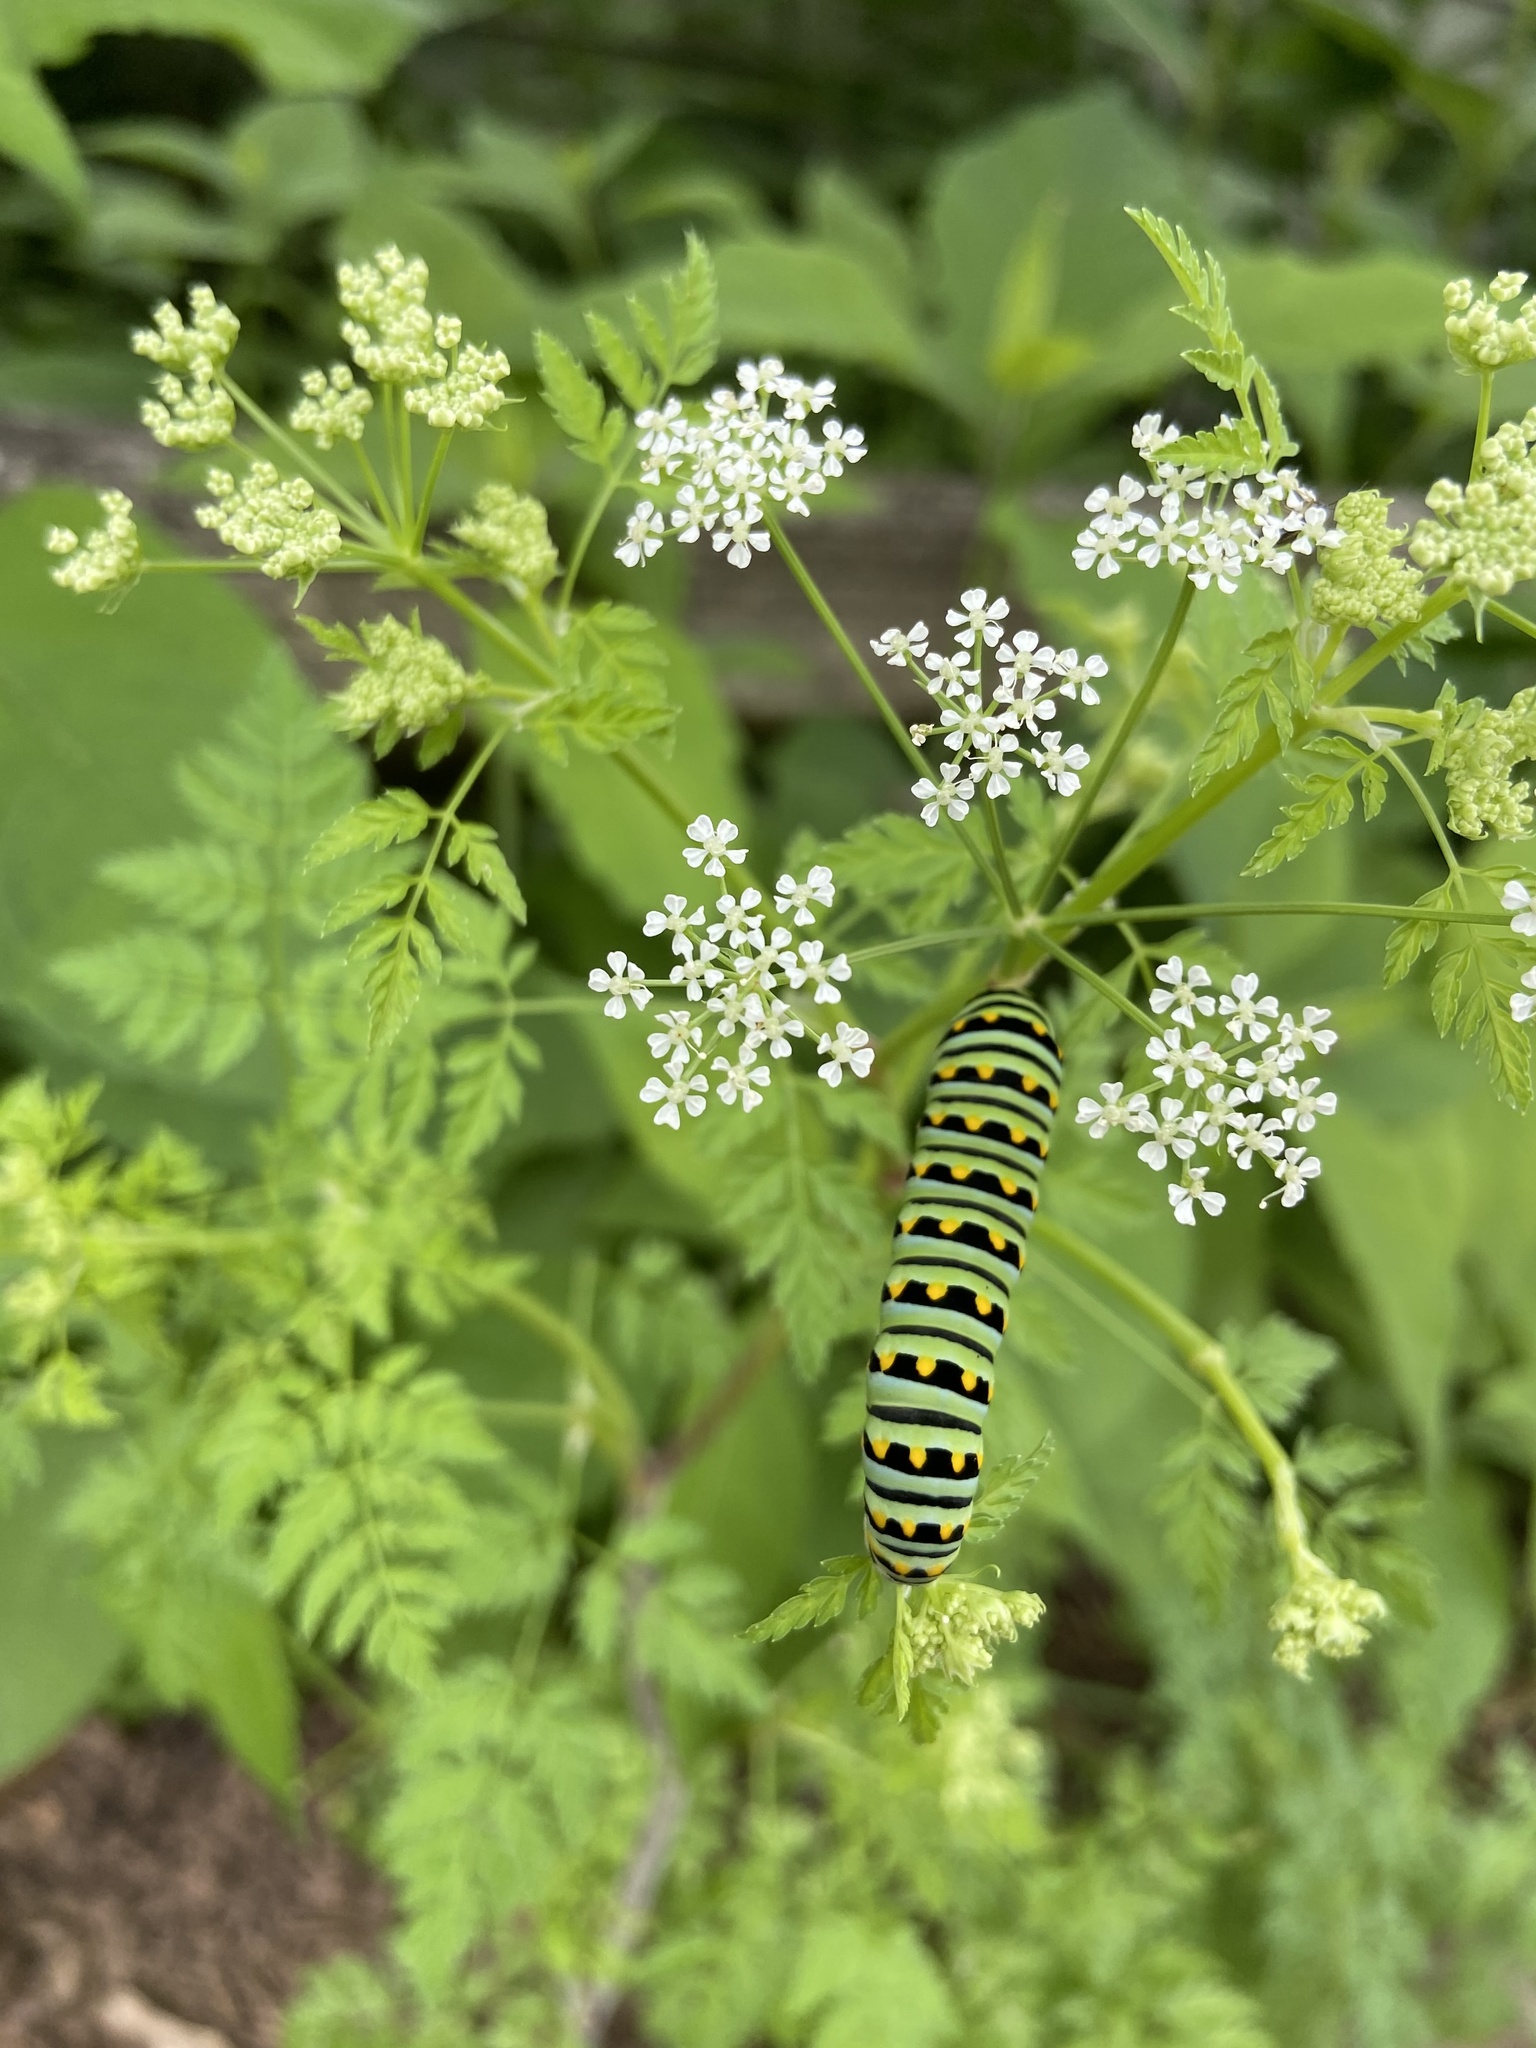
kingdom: Animalia
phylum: Arthropoda
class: Insecta
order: Lepidoptera
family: Papilionidae
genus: Papilio
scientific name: Papilio polyxenes
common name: Black swallowtail
